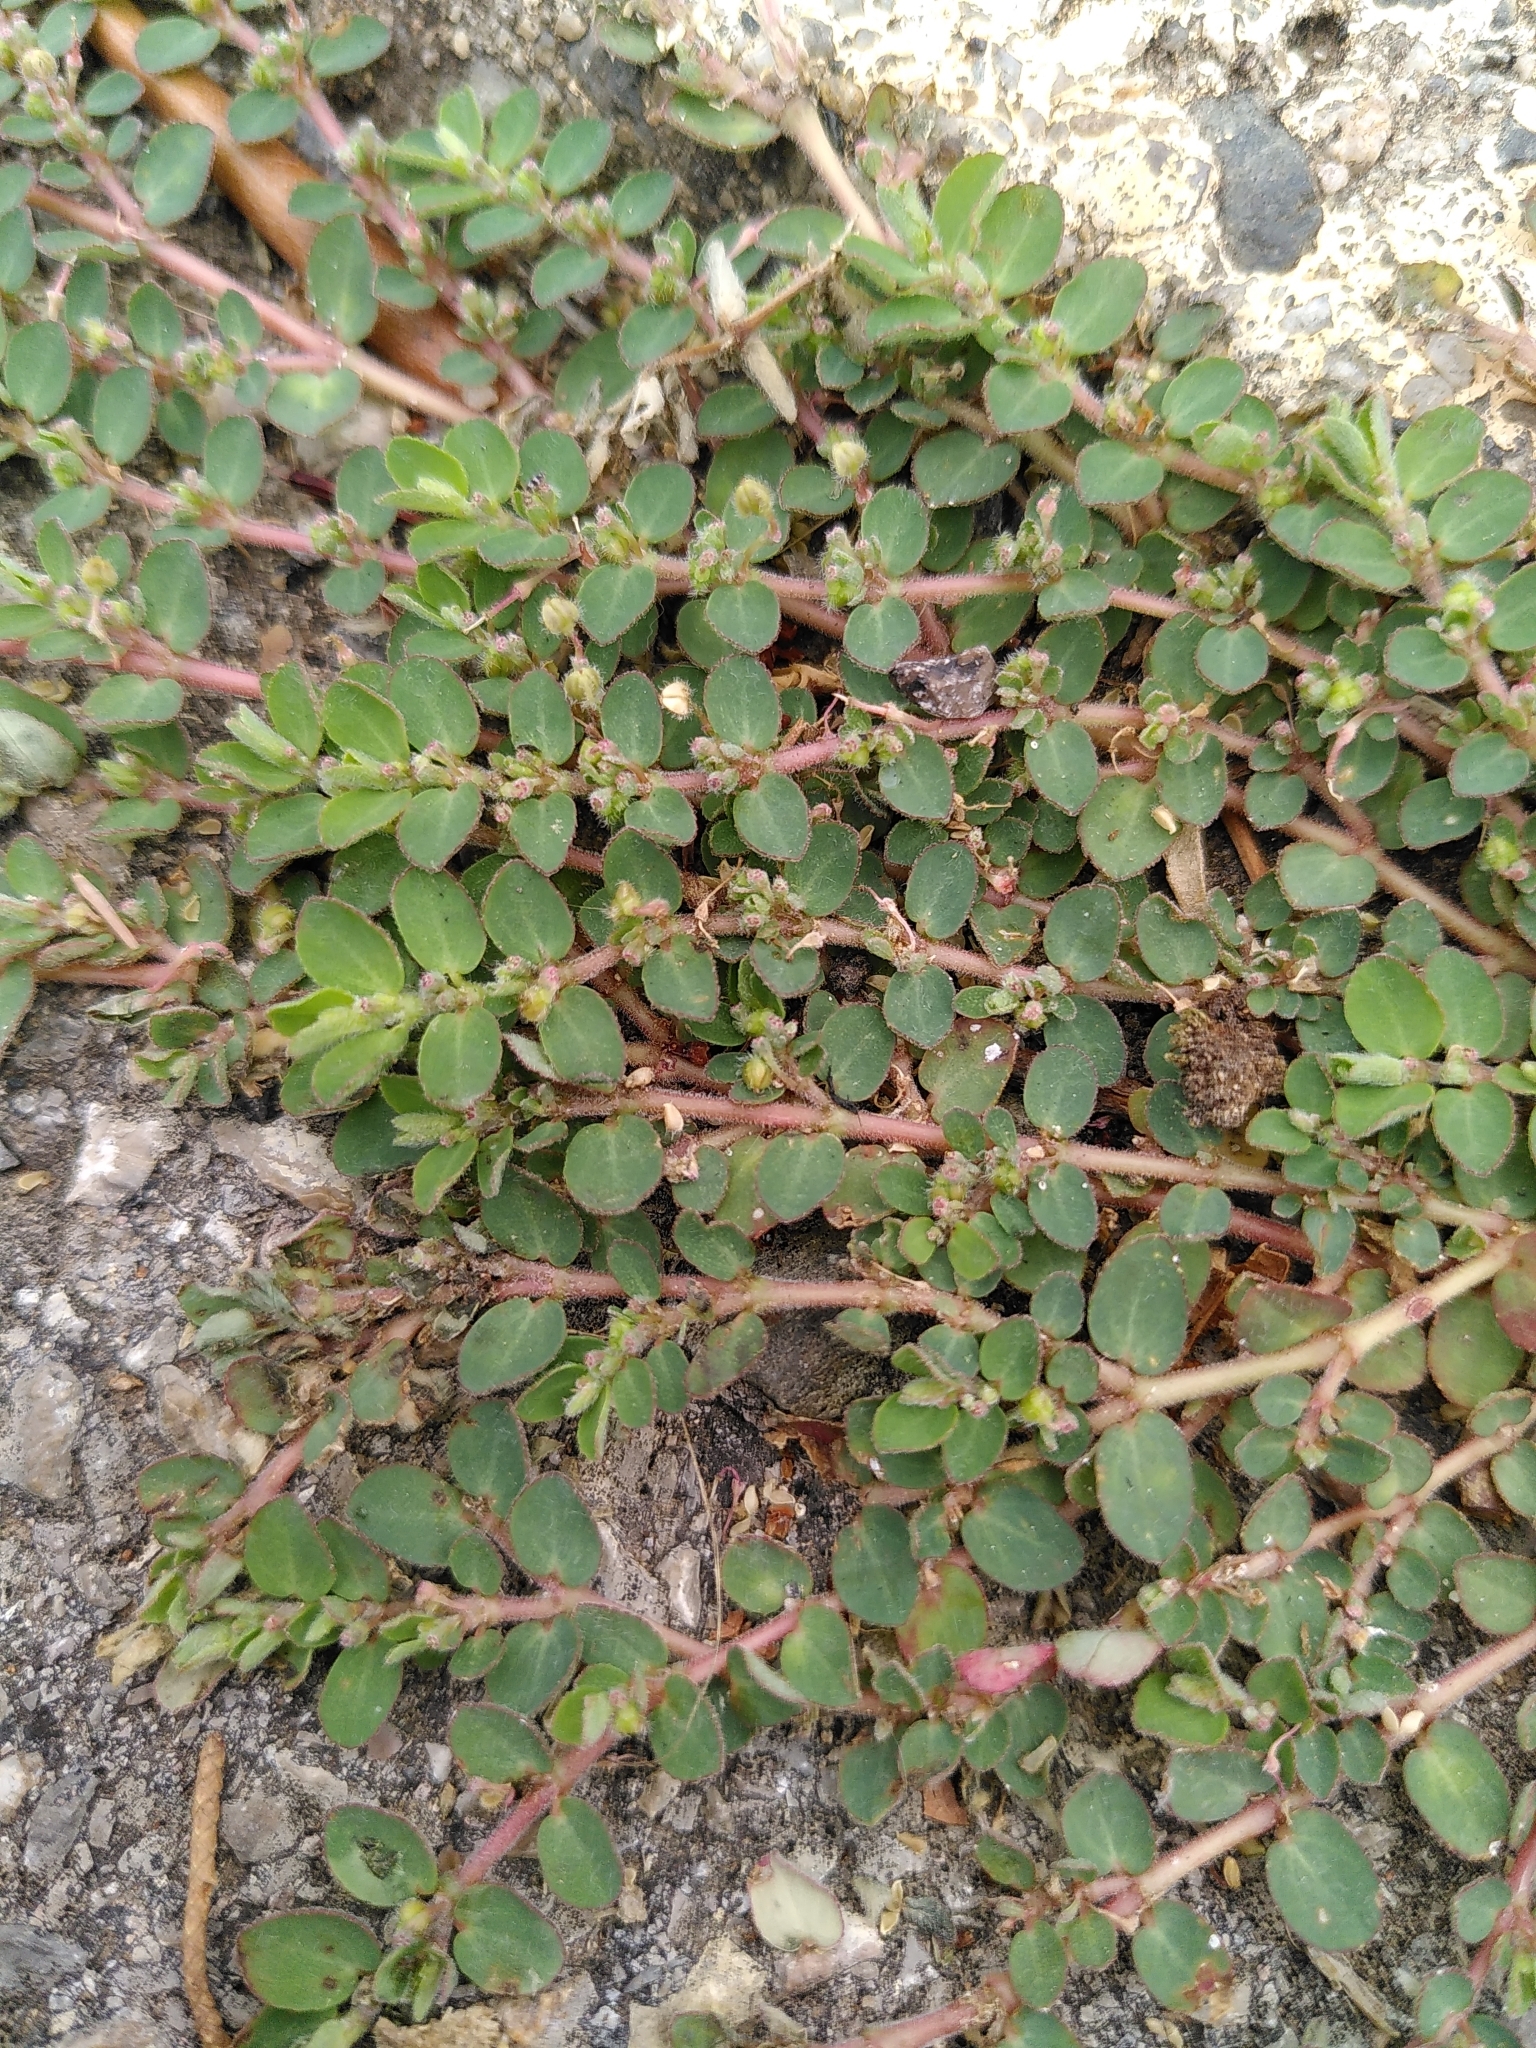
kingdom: Plantae
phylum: Tracheophyta
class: Magnoliopsida
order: Malpighiales
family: Euphorbiaceae
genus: Euphorbia
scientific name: Euphorbia prostrata
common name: Prostrate sandmat
